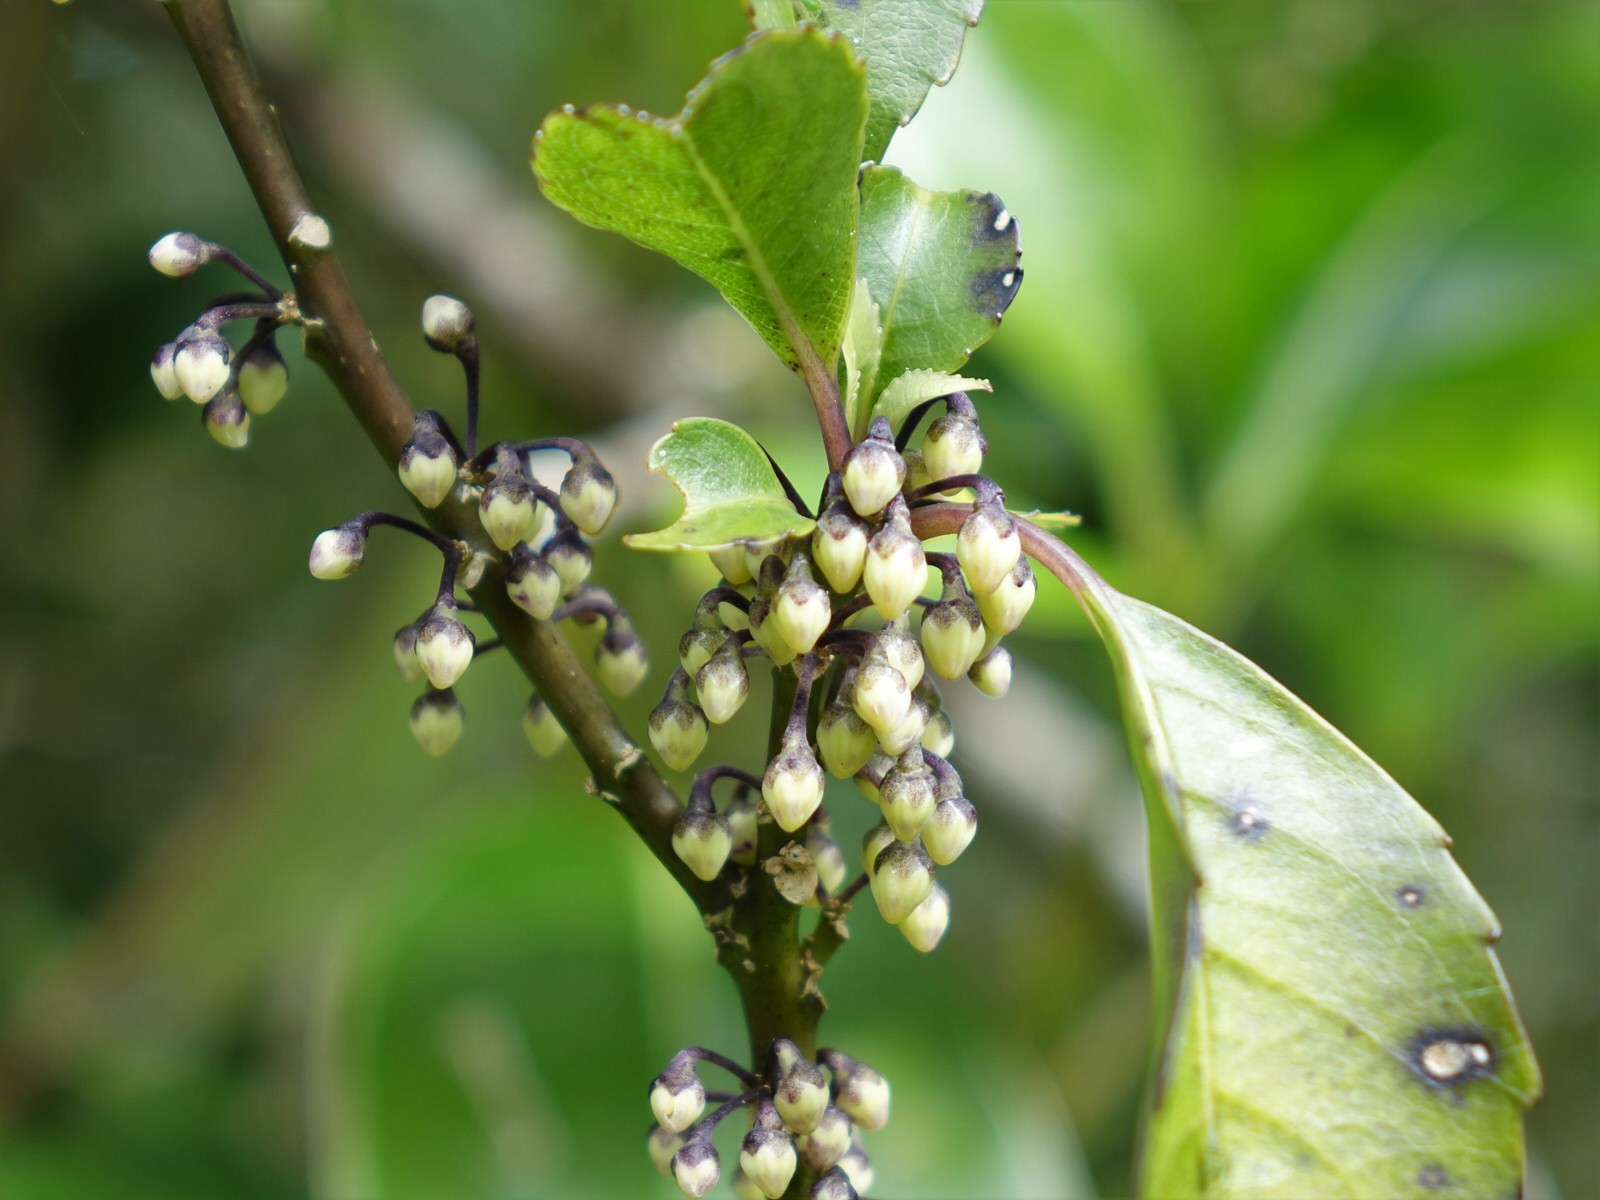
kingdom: Plantae
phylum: Tracheophyta
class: Magnoliopsida
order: Malpighiales
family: Violaceae
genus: Melicytus
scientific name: Melicytus macrophyllus
